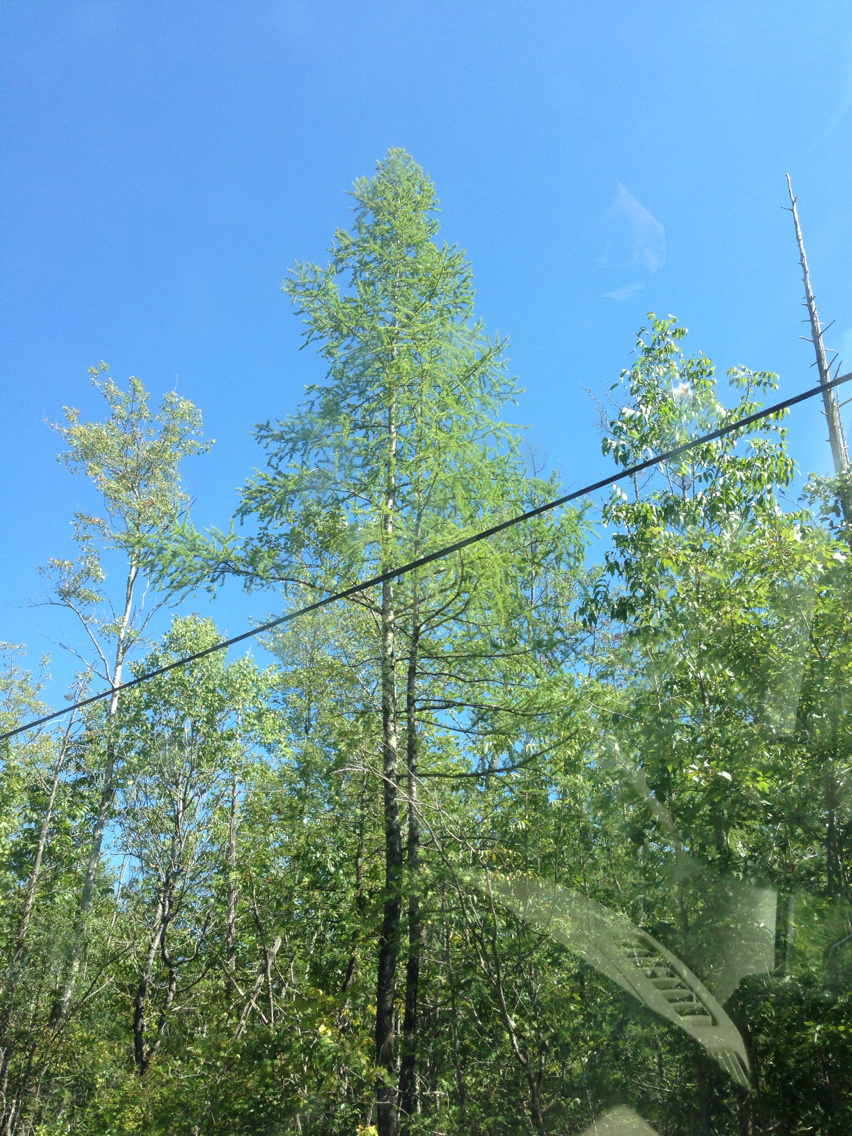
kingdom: Plantae
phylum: Tracheophyta
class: Pinopsida
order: Pinales
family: Pinaceae
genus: Larix
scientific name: Larix laricina
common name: American larch
